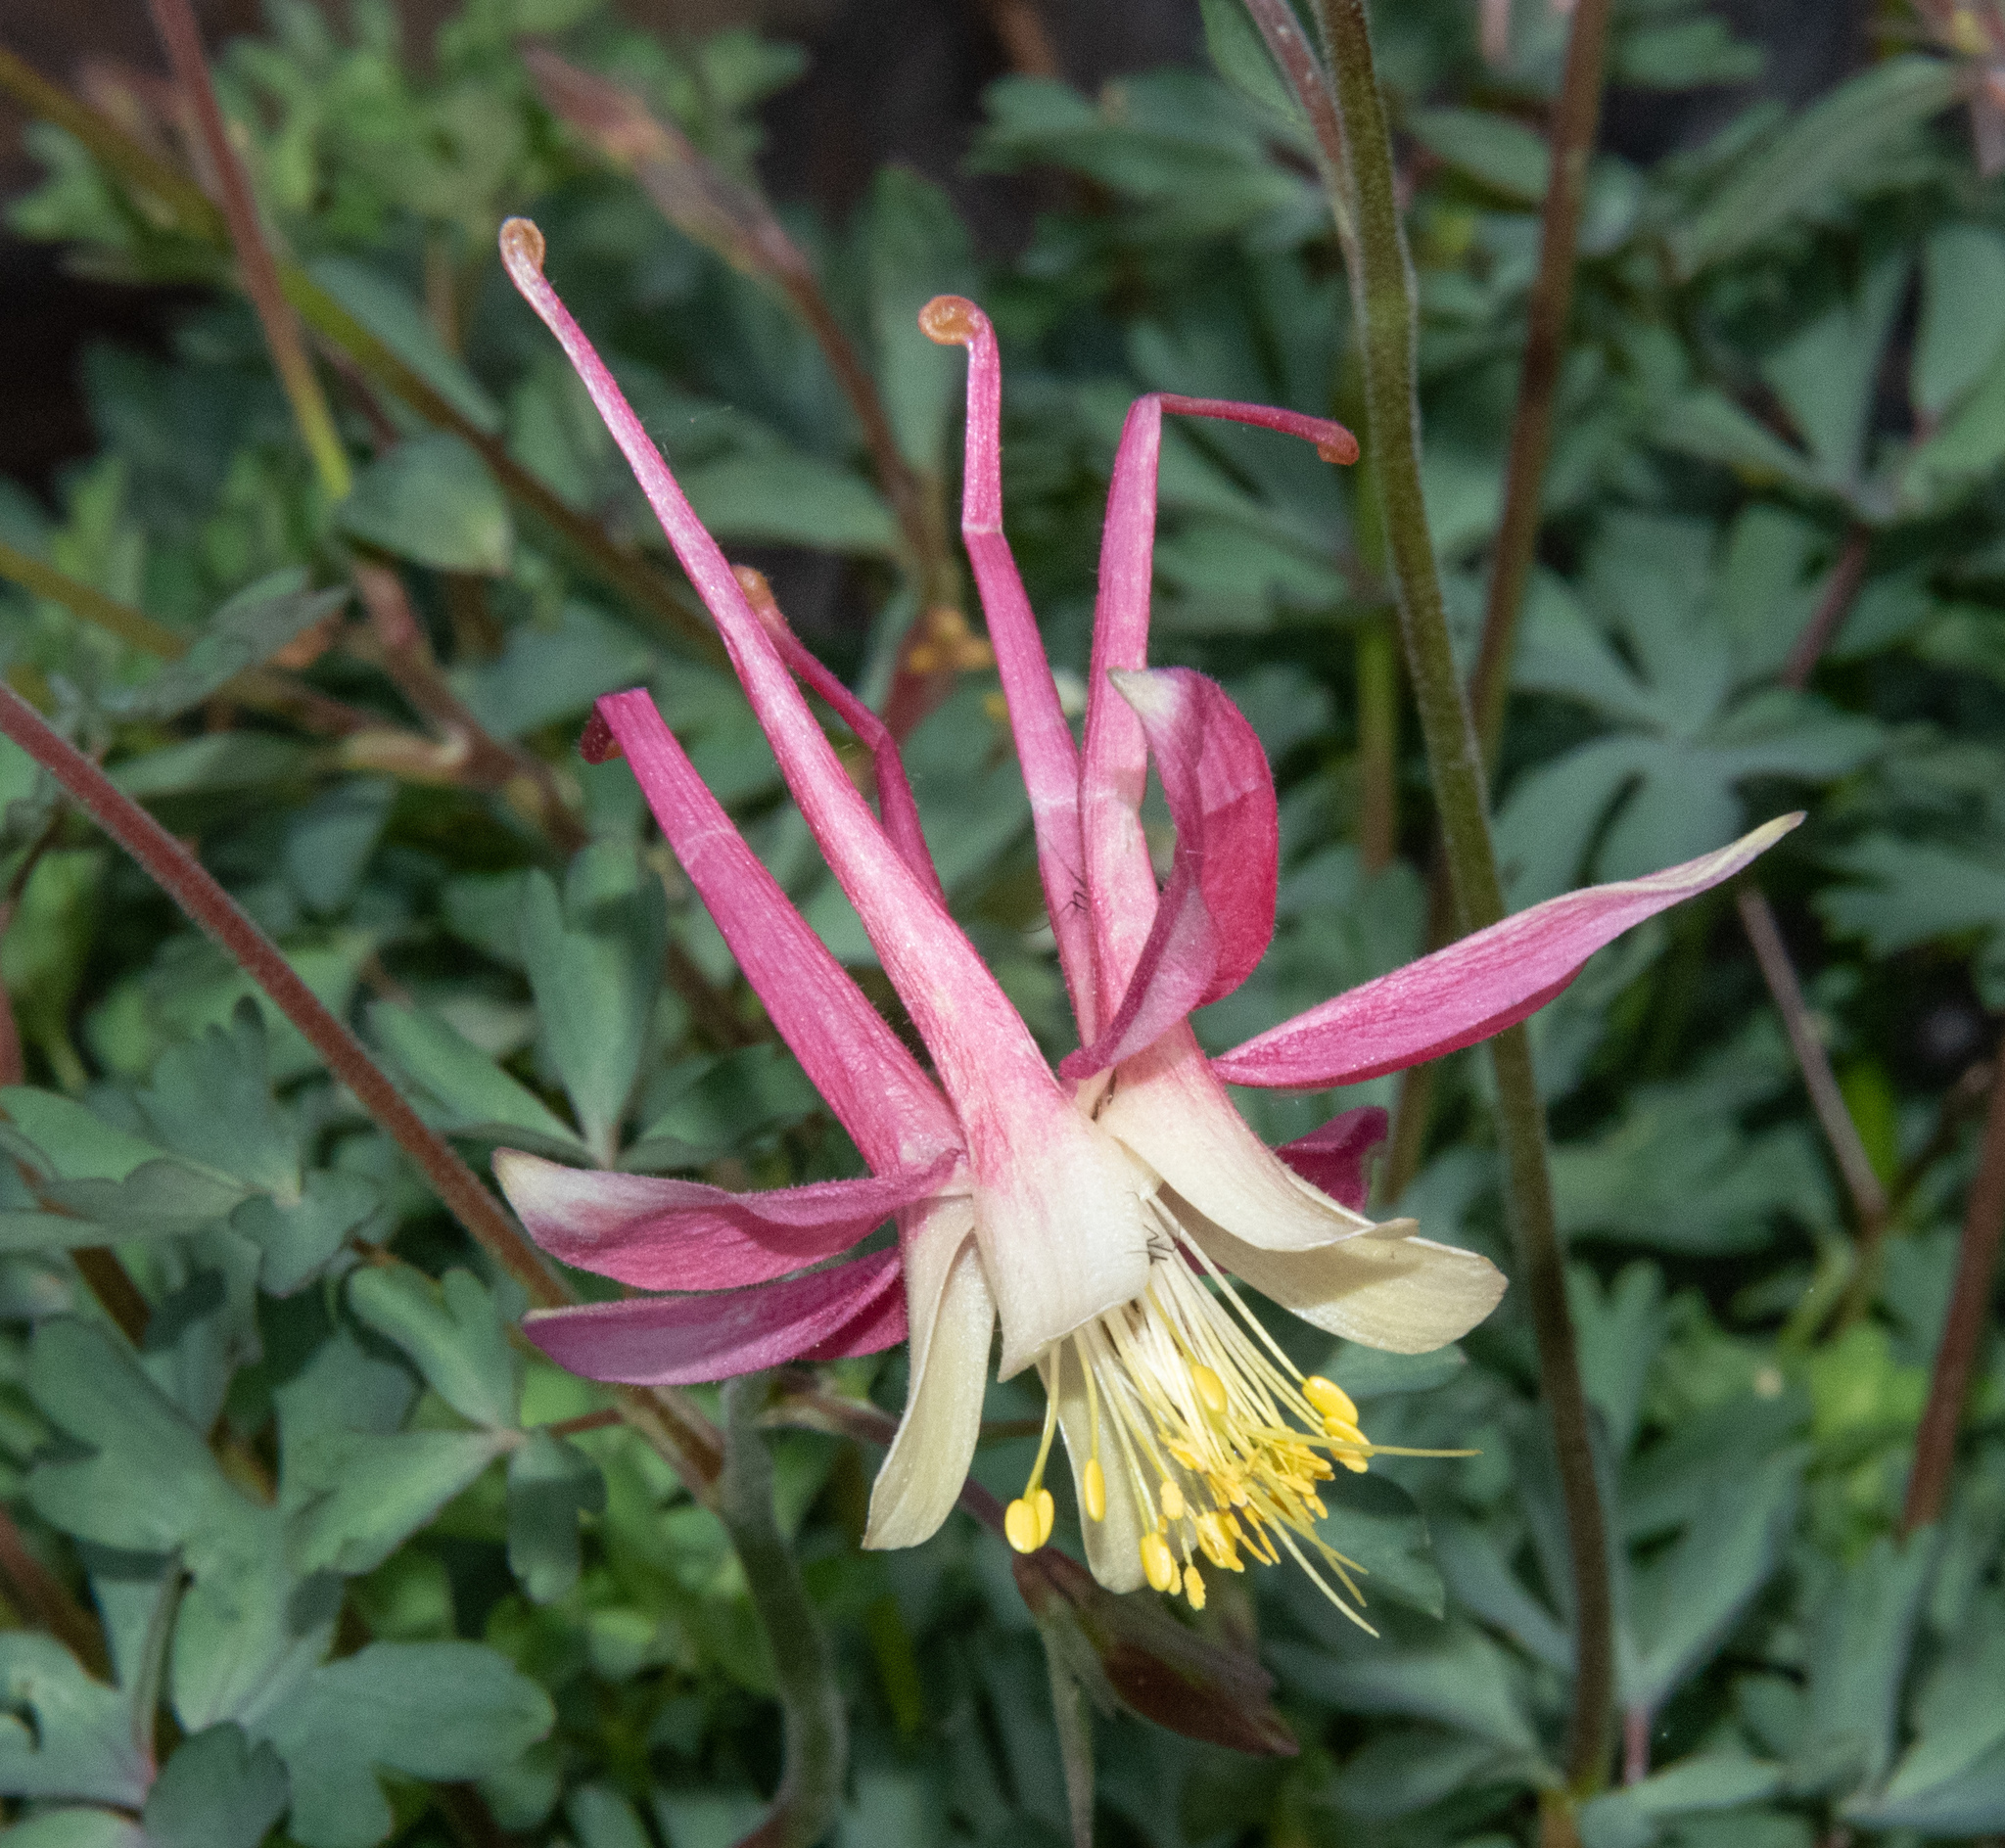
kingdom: Plantae
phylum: Tracheophyta
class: Magnoliopsida
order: Ranunculales
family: Ranunculaceae
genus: Aquilegia
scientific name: Aquilegia pubescens
